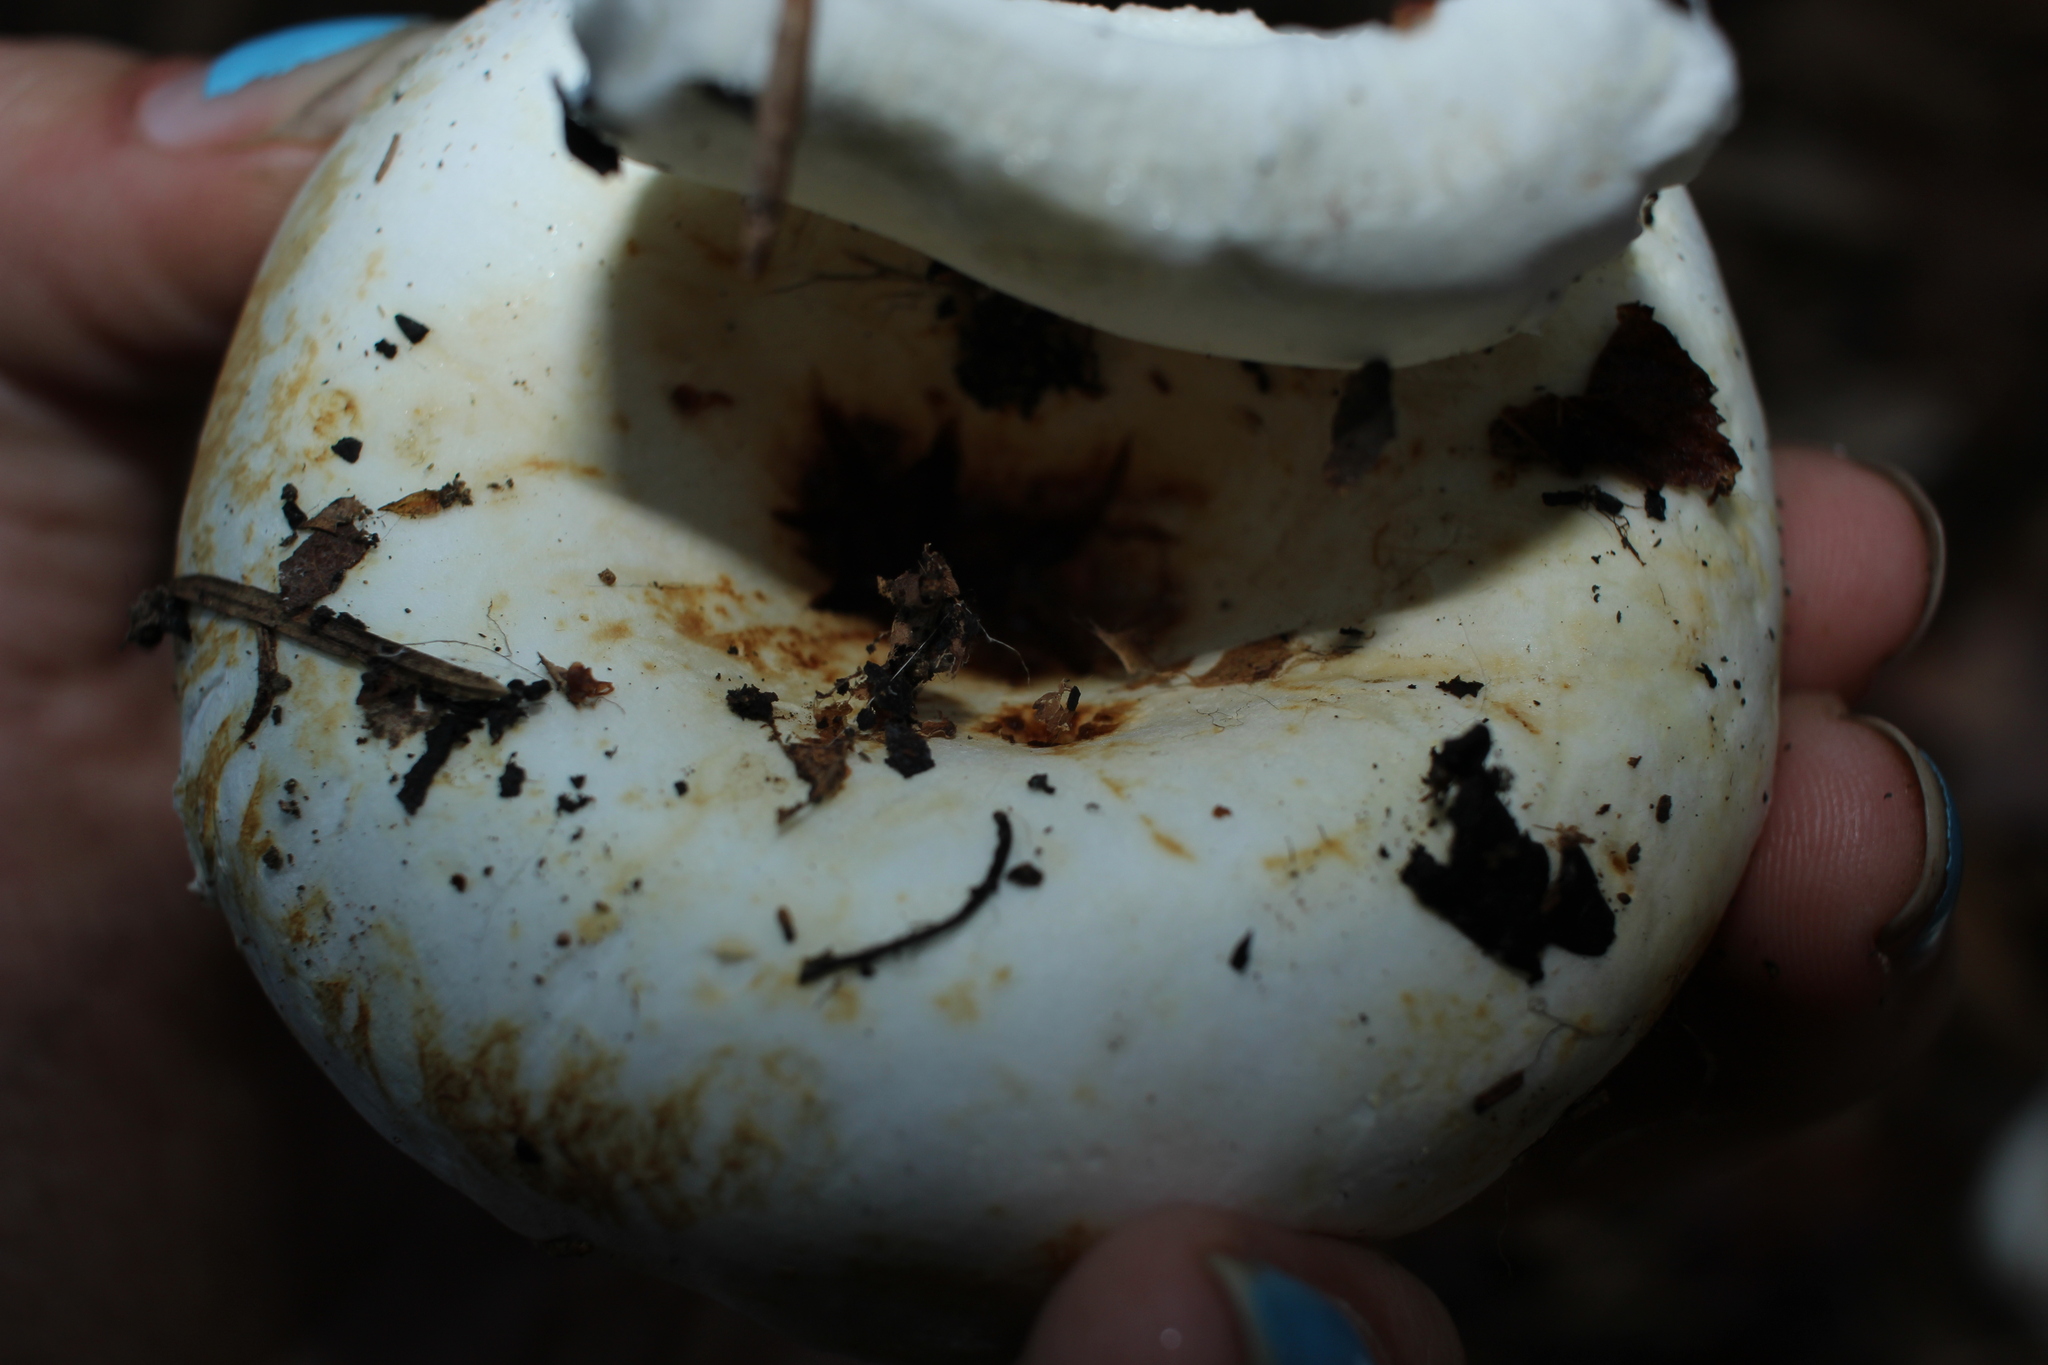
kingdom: Fungi
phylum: Basidiomycota
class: Agaricomycetes
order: Russulales
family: Russulaceae
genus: Lactifluus
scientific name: Lactifluus
